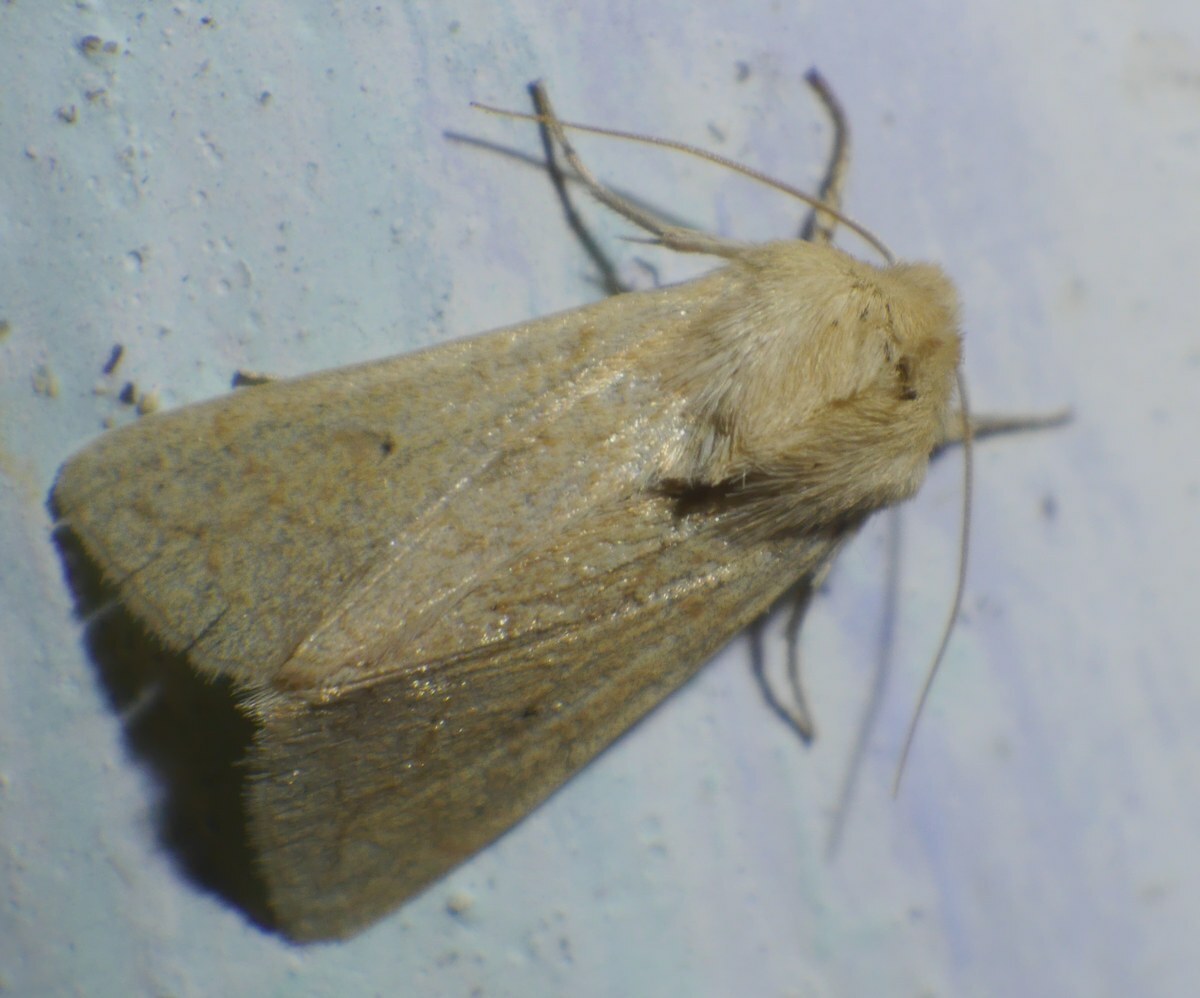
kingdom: Animalia
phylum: Arthropoda
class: Insecta
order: Lepidoptera
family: Noctuidae
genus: Mythimna
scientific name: Mythimna vitellina
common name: Delicate
